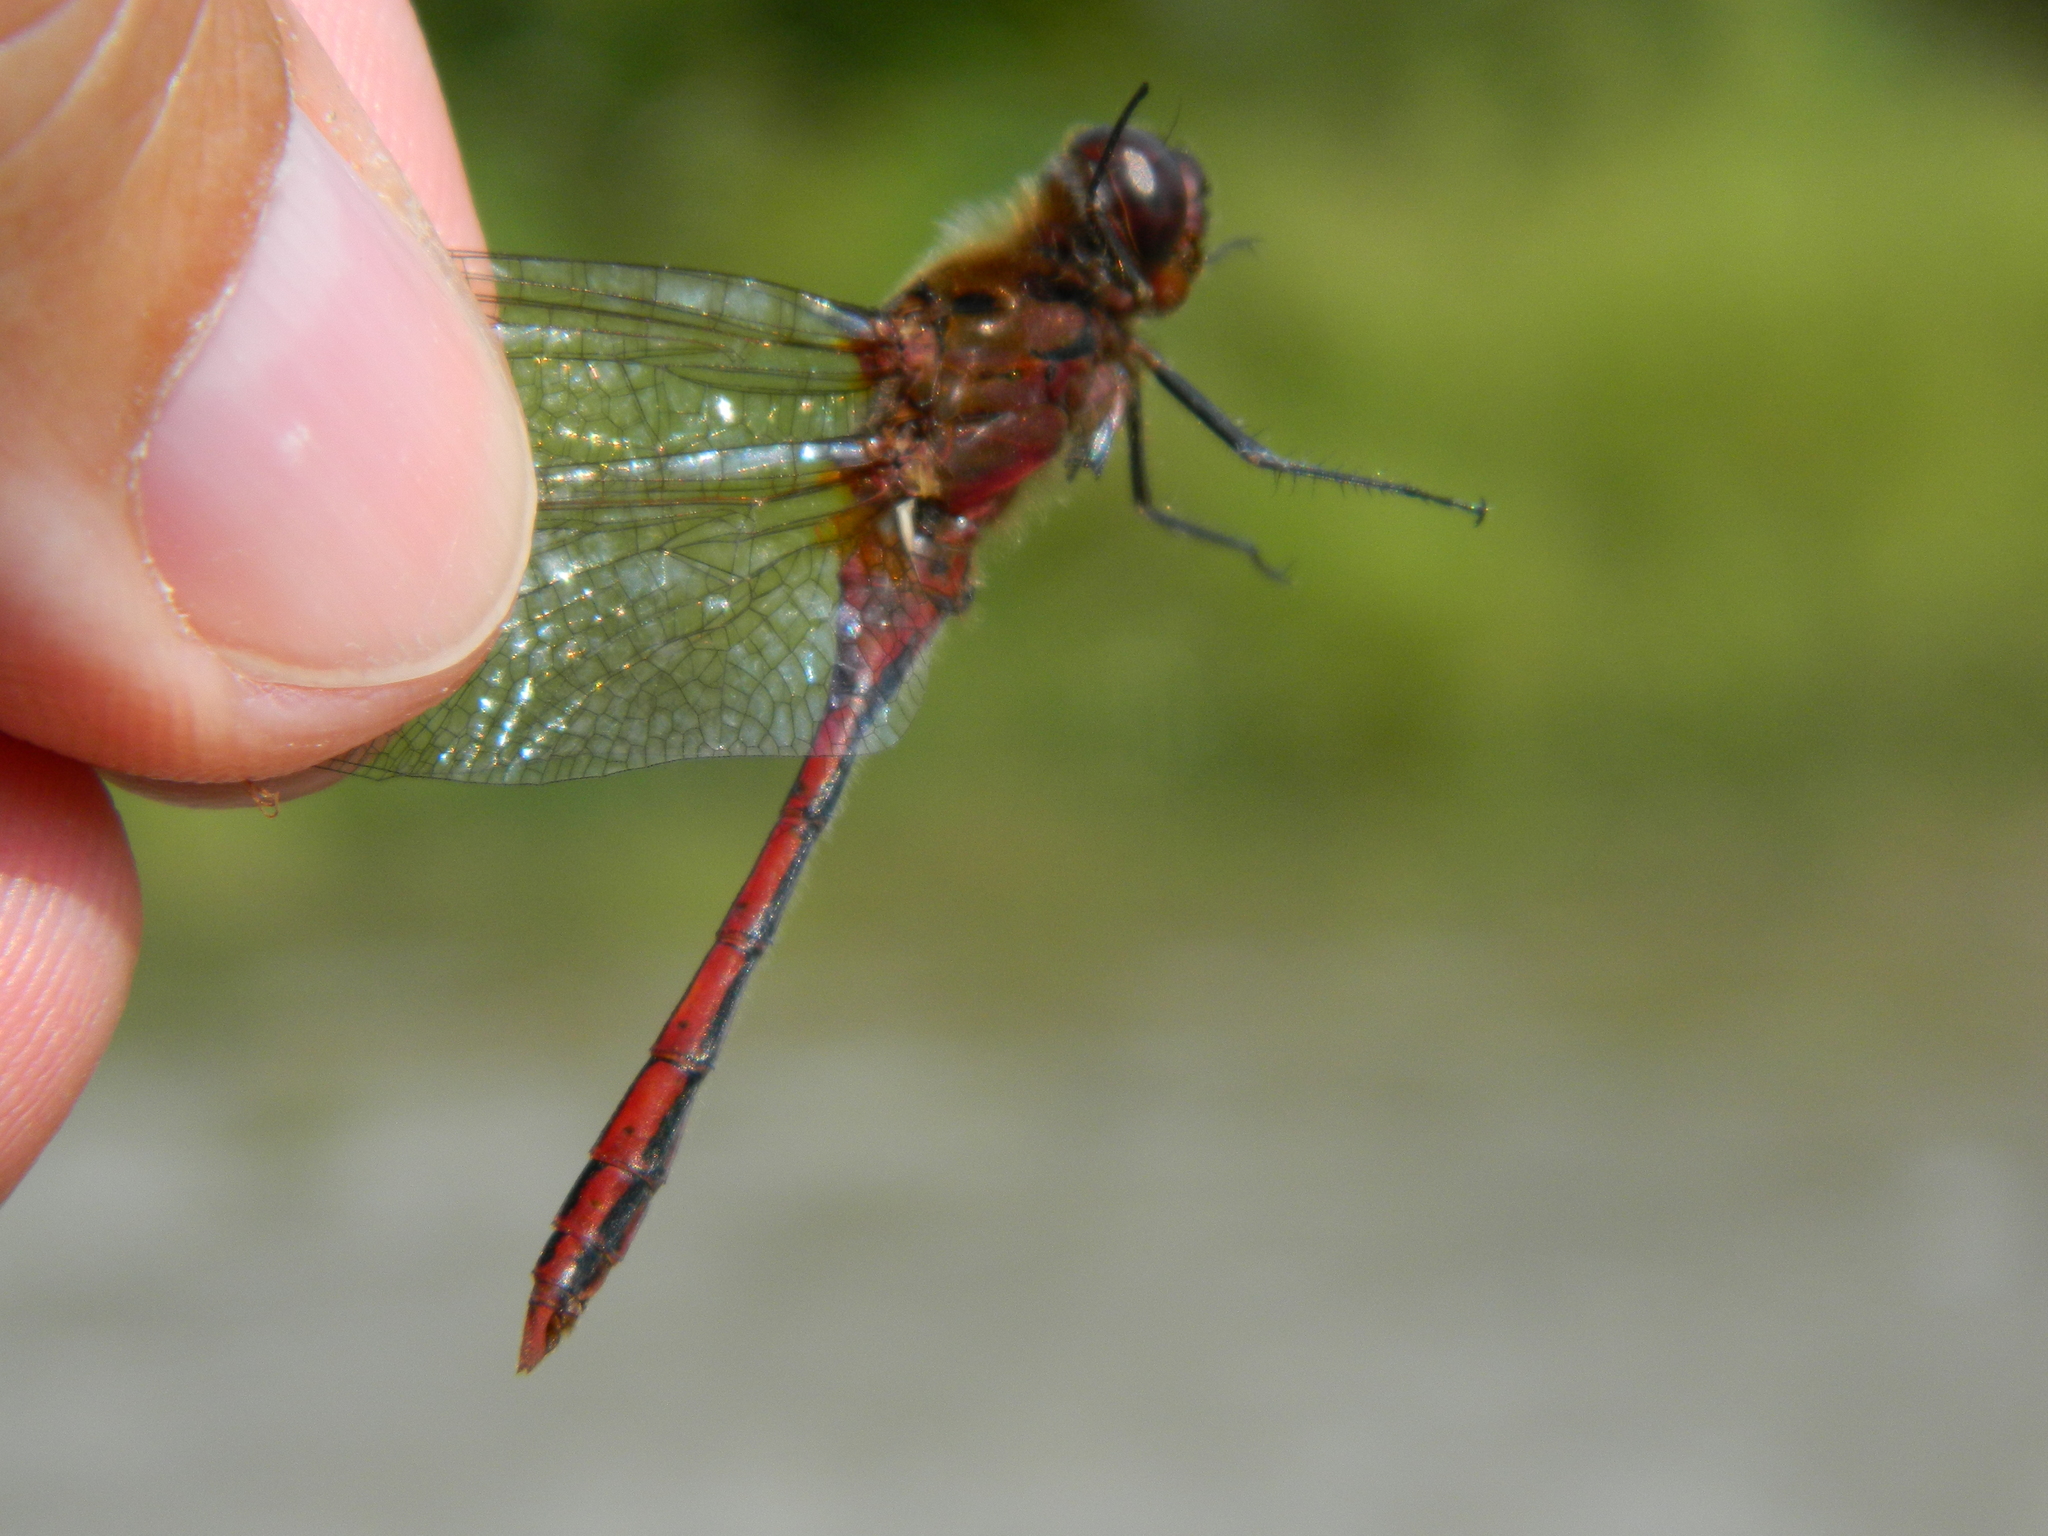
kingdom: Animalia
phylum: Arthropoda
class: Insecta
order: Odonata
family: Libellulidae
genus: Sympetrum
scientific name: Sympetrum costiferum
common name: Saffron-winged meadowhawk
